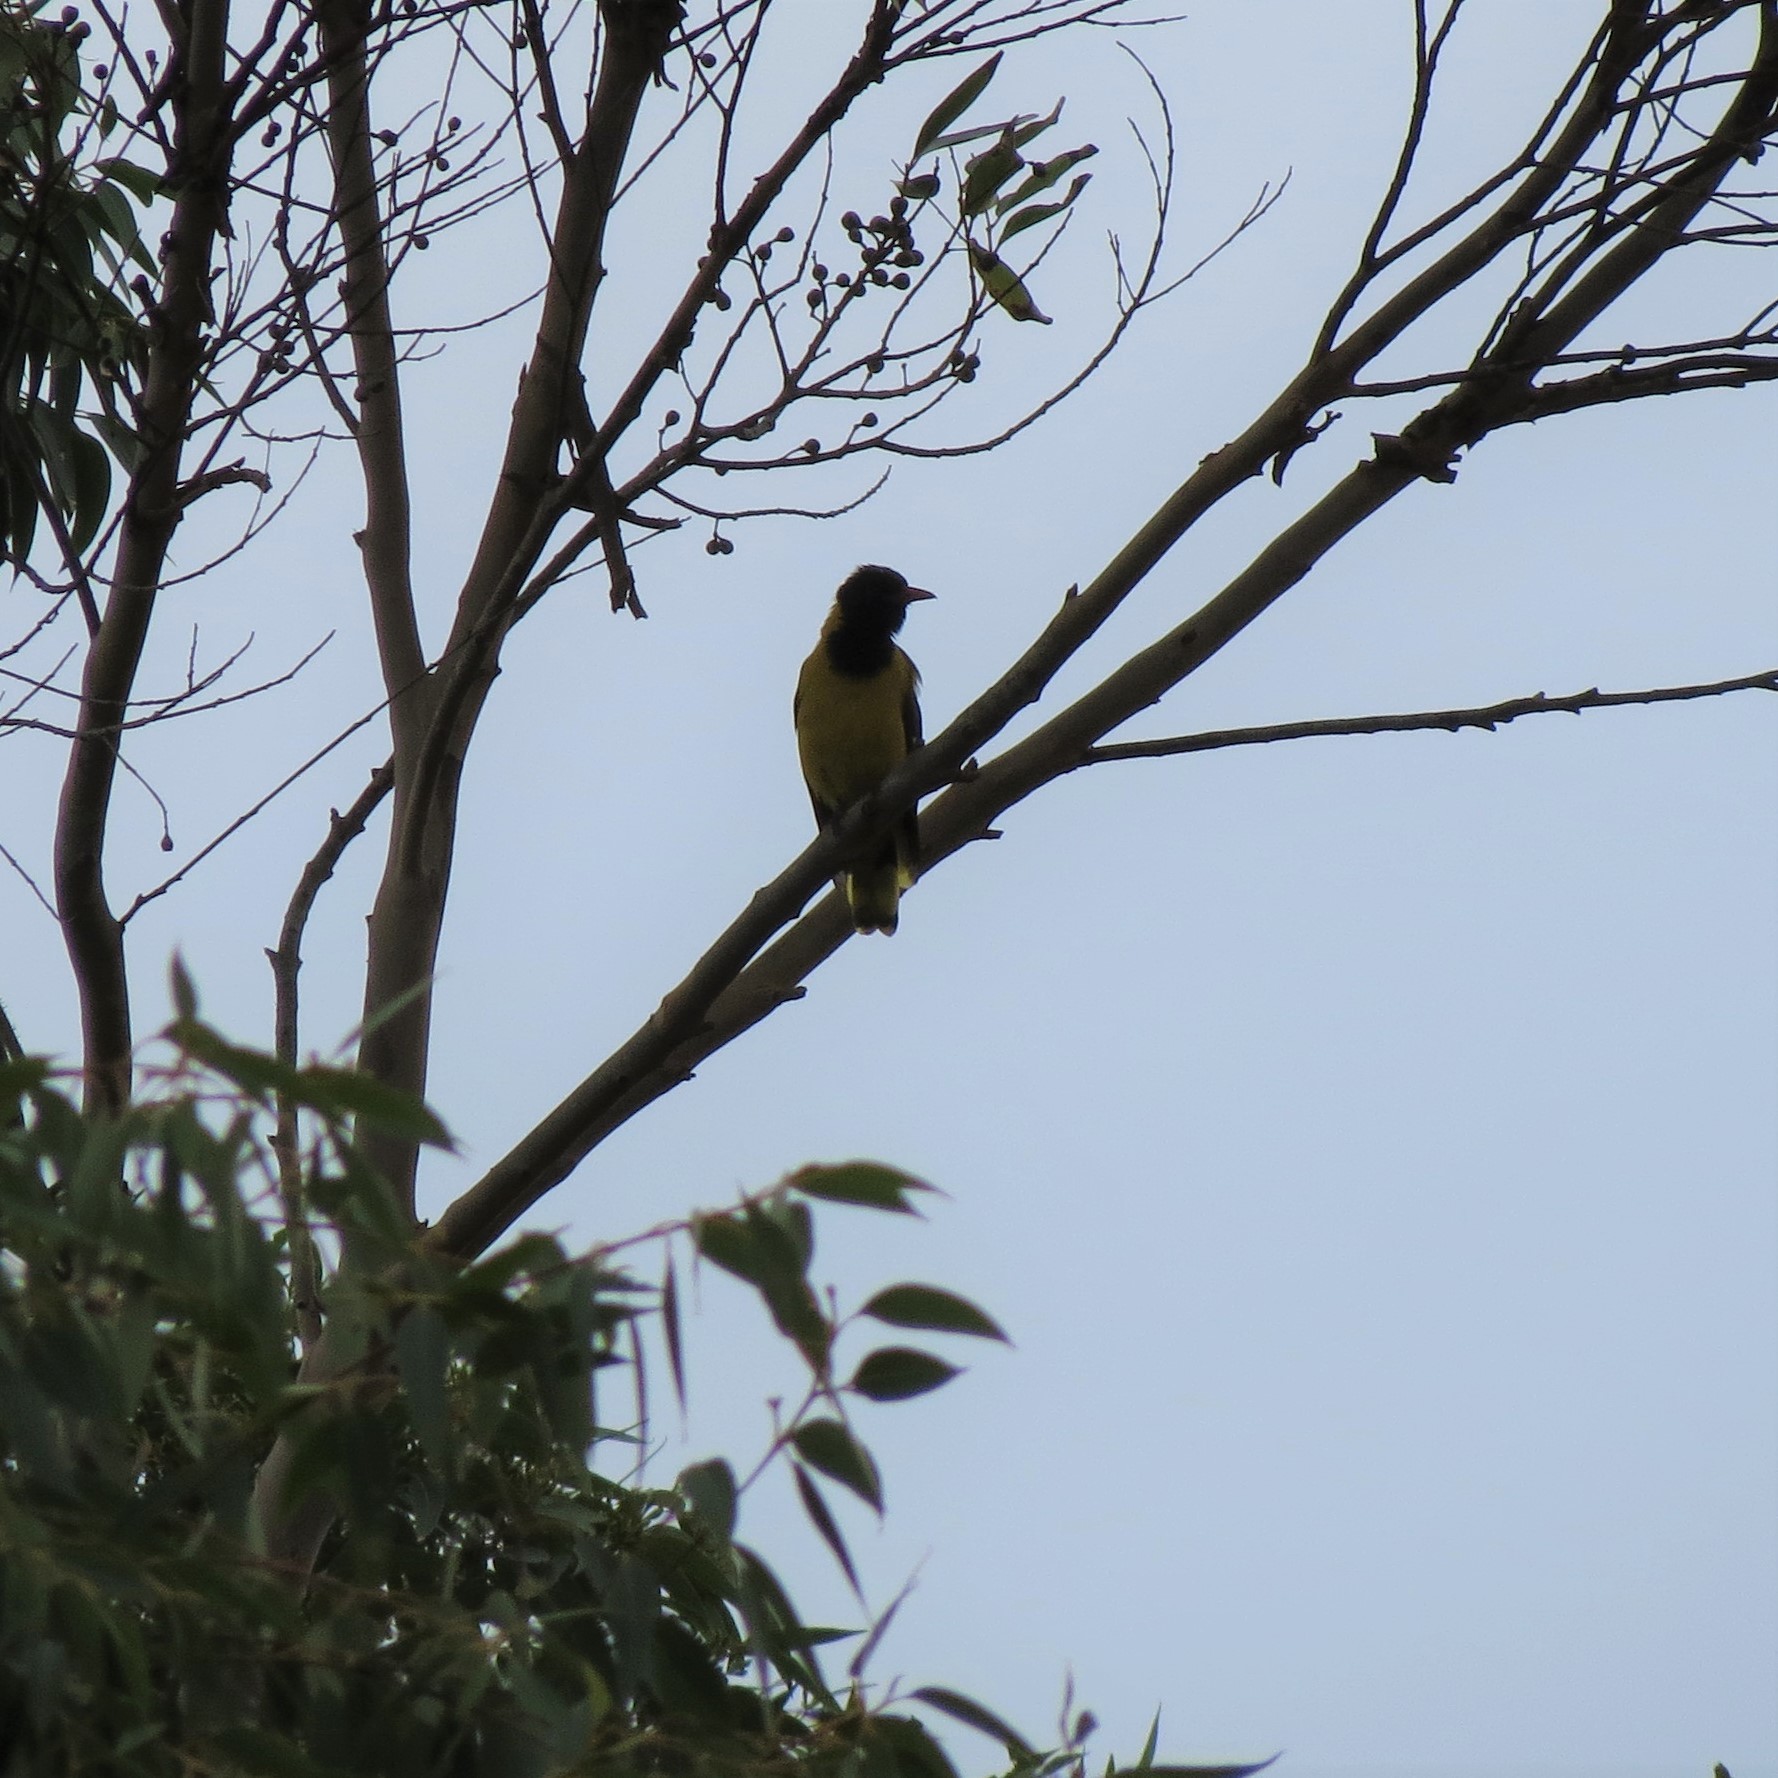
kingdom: Animalia
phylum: Chordata
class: Aves
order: Passeriformes
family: Oriolidae
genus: Oriolus
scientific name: Oriolus larvatus
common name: Black-headed oriole
